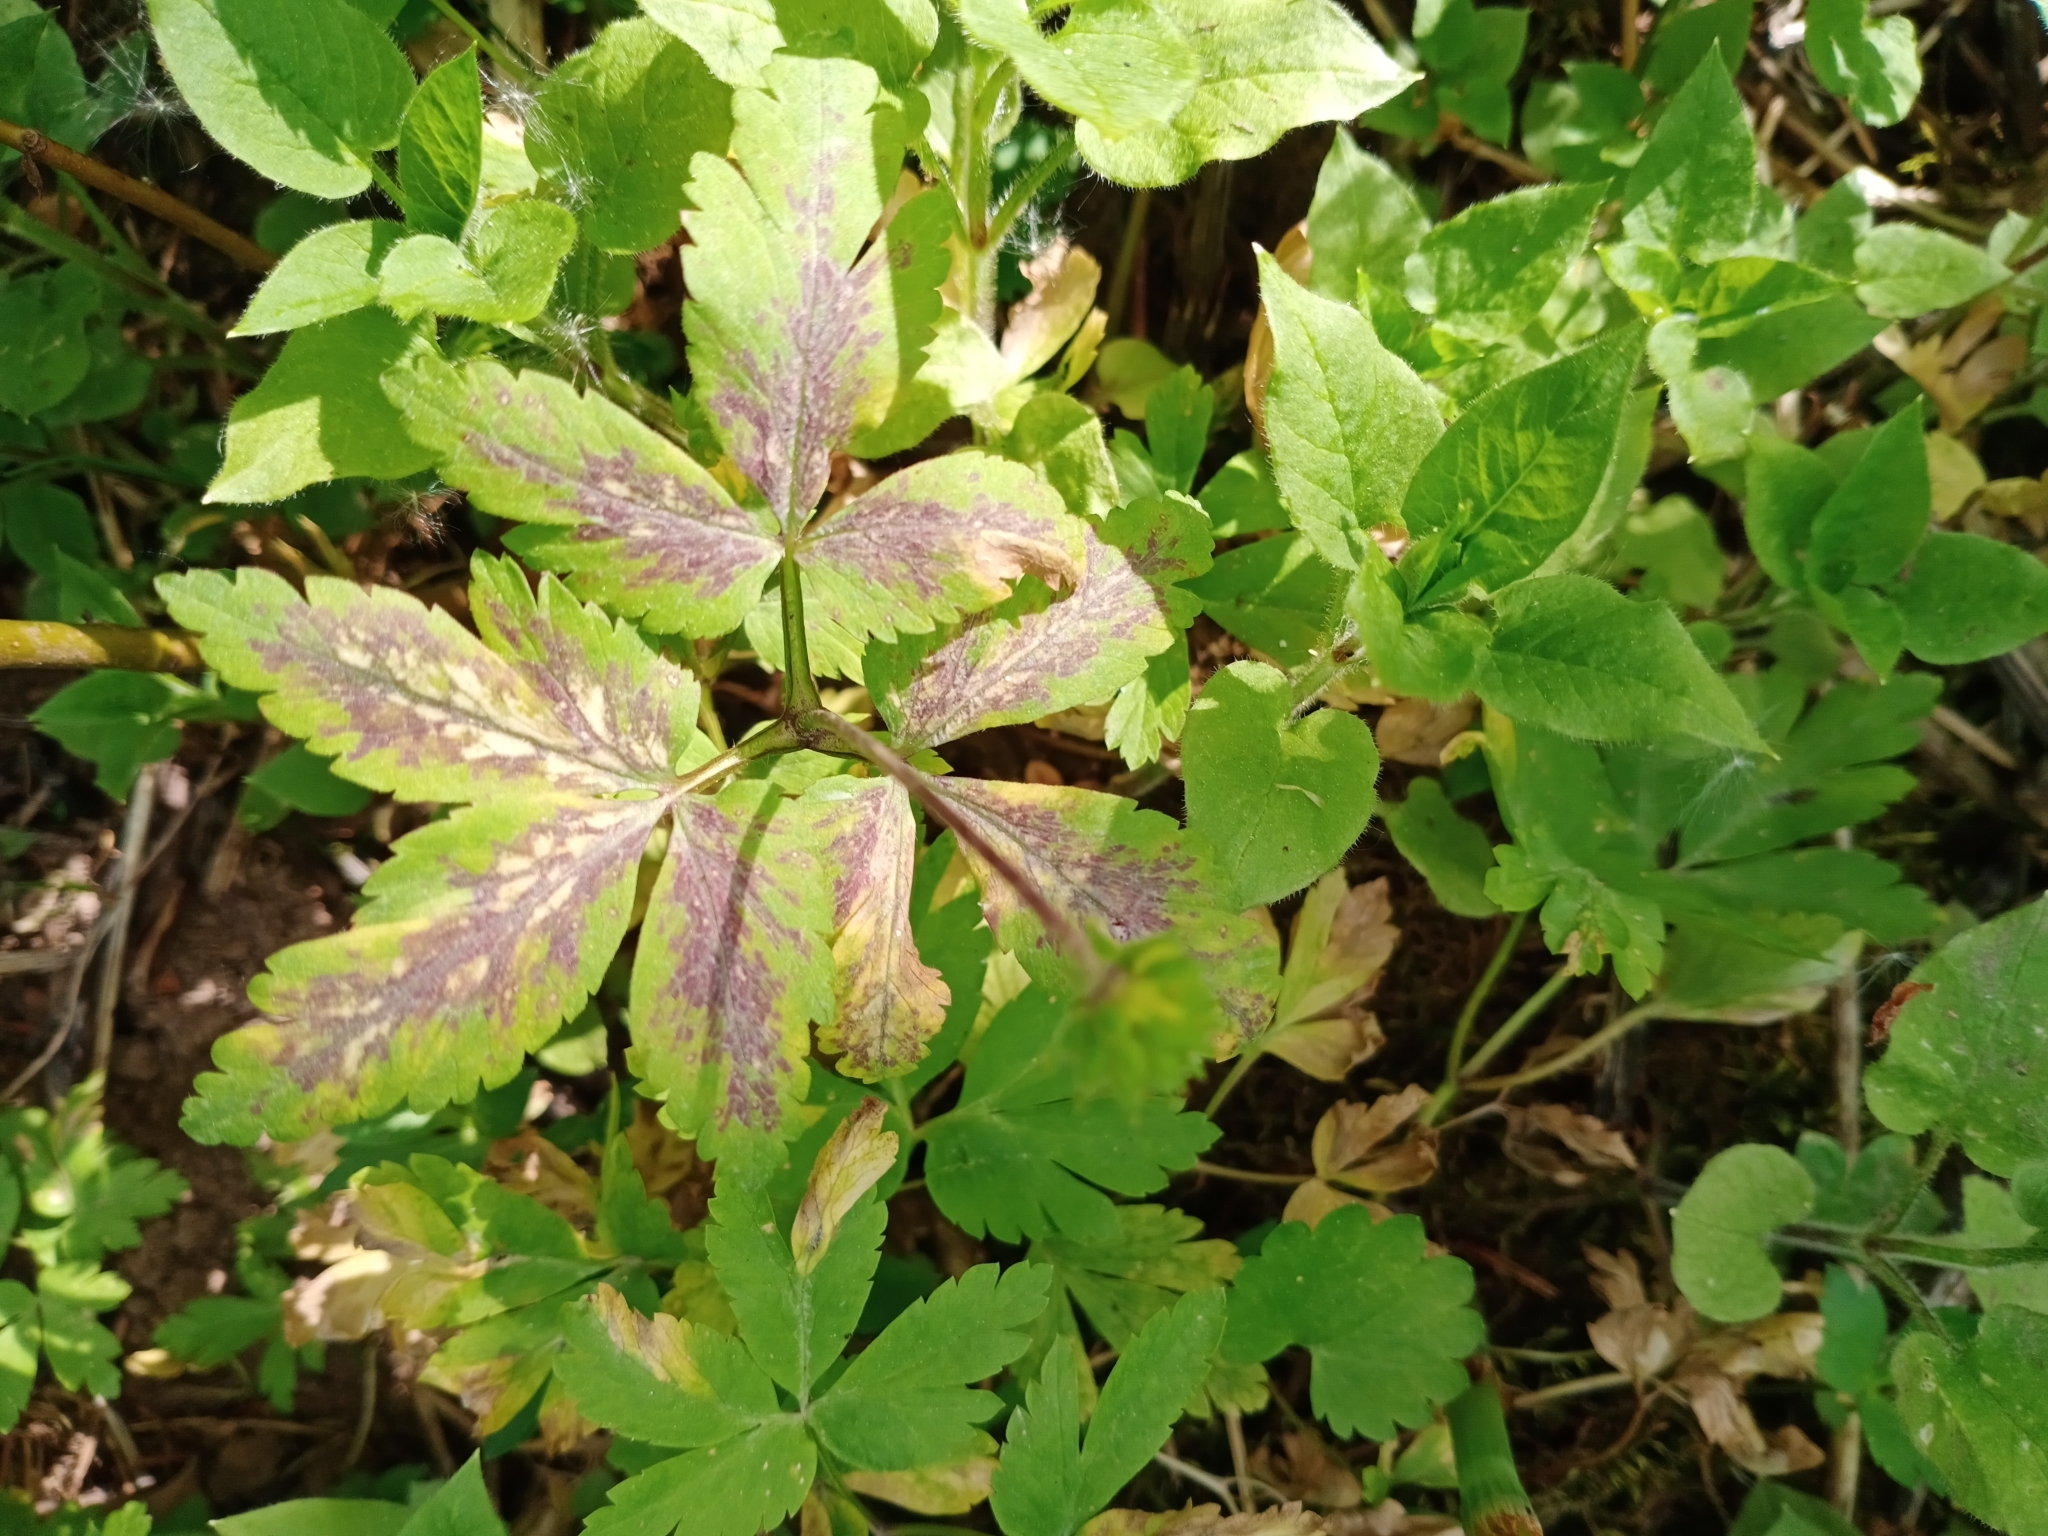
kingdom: Plantae
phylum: Tracheophyta
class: Magnoliopsida
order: Ranunculales
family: Ranunculaceae
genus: Anemone
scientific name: Anemone altaica
